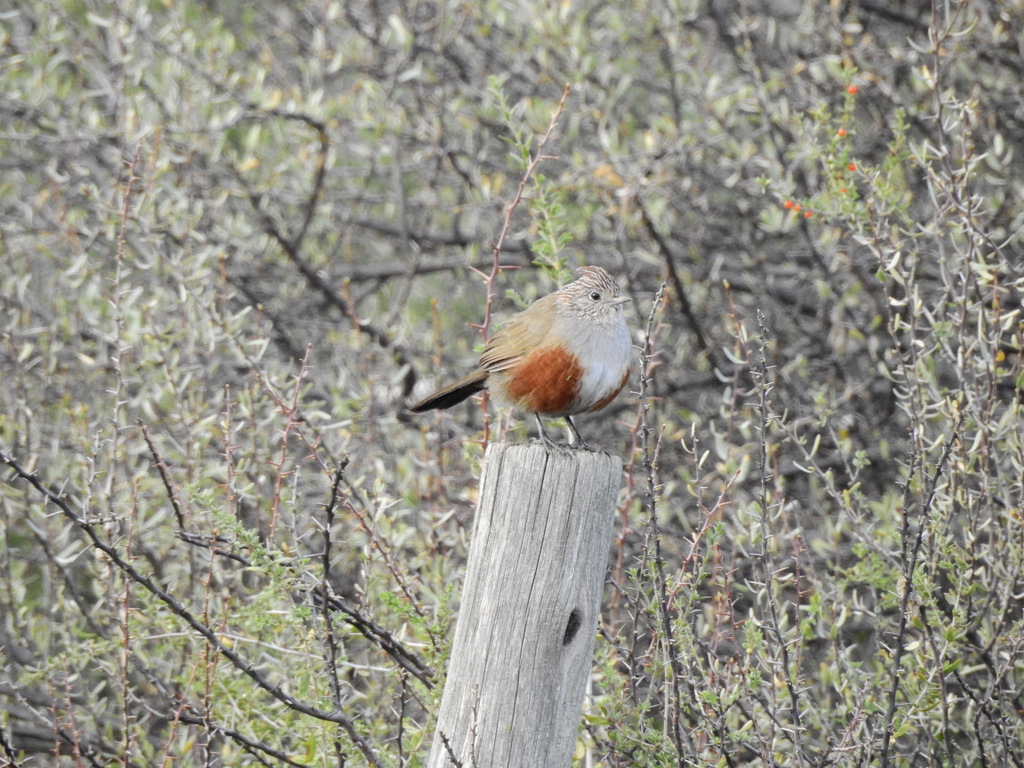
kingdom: Animalia
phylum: Chordata
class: Aves
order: Passeriformes
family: Rhinocryptidae
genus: Rhinocrypta
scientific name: Rhinocrypta lanceolata
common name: Crested gallito
